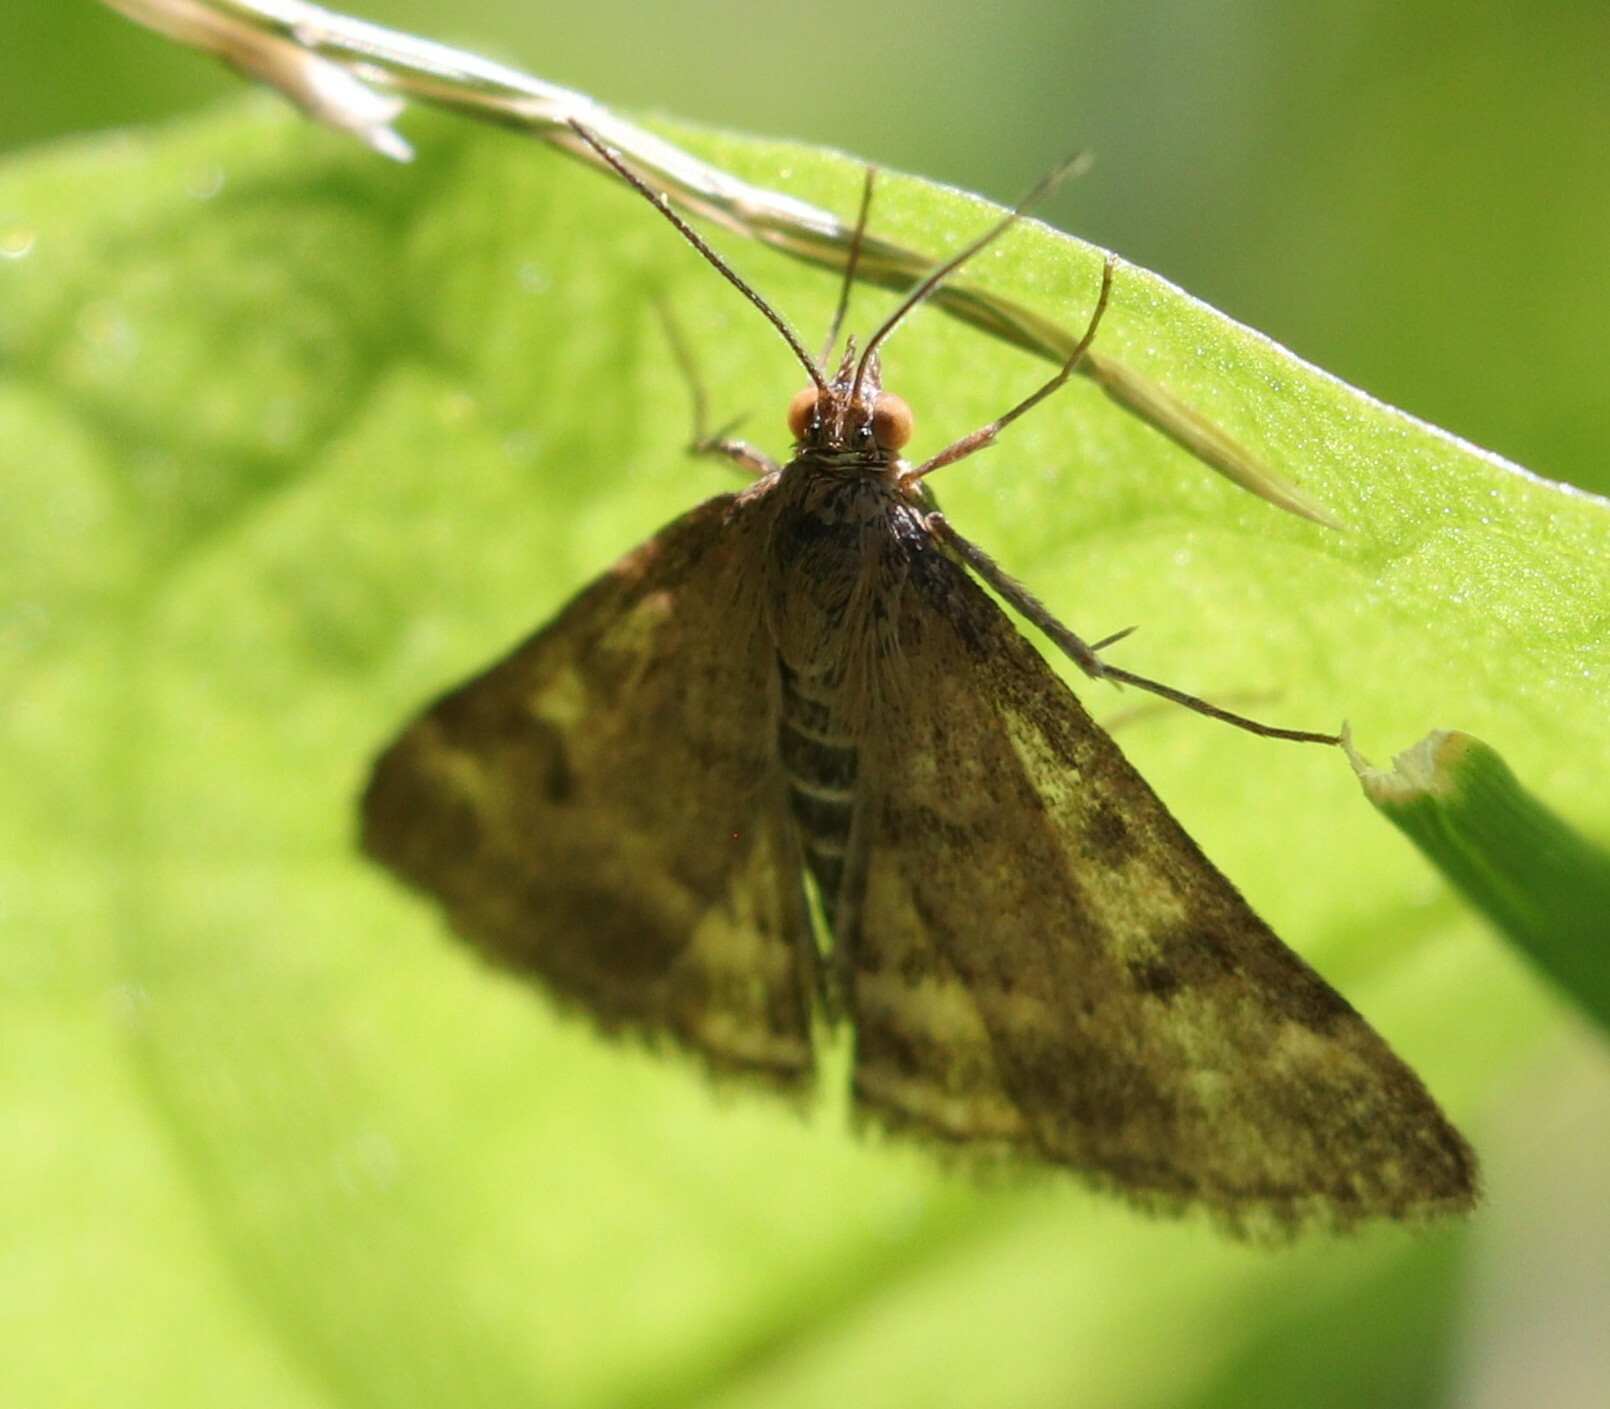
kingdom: Animalia
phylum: Arthropoda
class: Insecta
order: Lepidoptera
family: Crambidae
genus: Pyrausta
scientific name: Pyrausta despicata
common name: Straw-barred pearl
